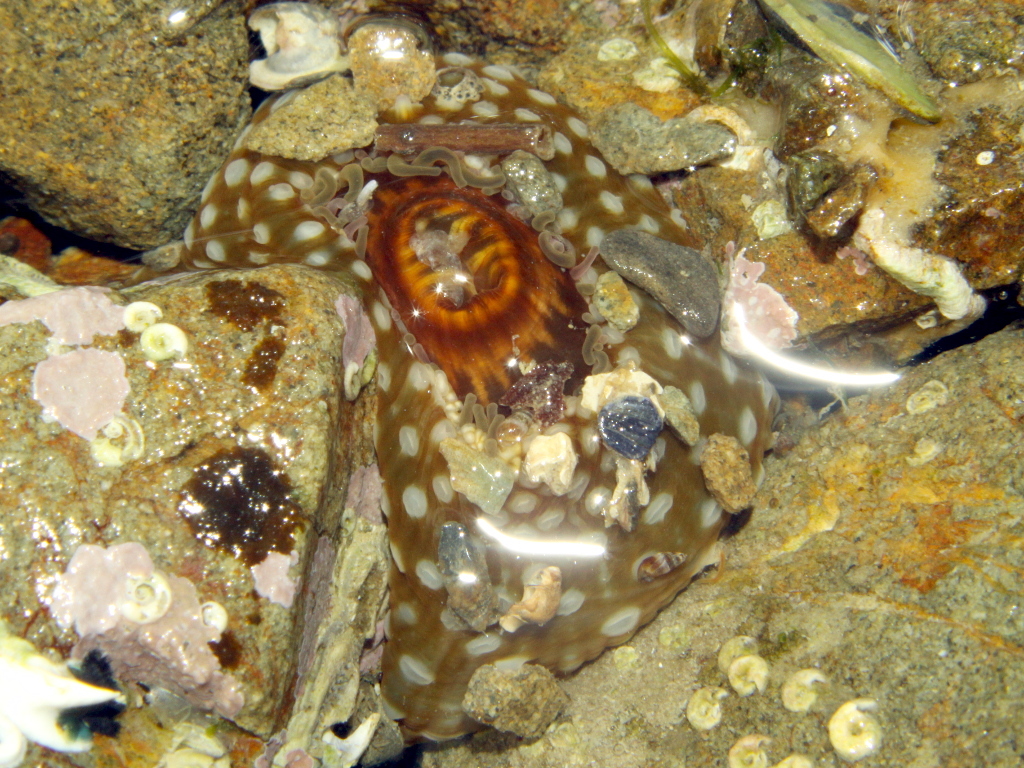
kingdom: Animalia
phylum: Cnidaria
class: Anthozoa
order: Actiniaria
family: Actiniidae
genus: Oulactis
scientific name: Oulactis muscosa
